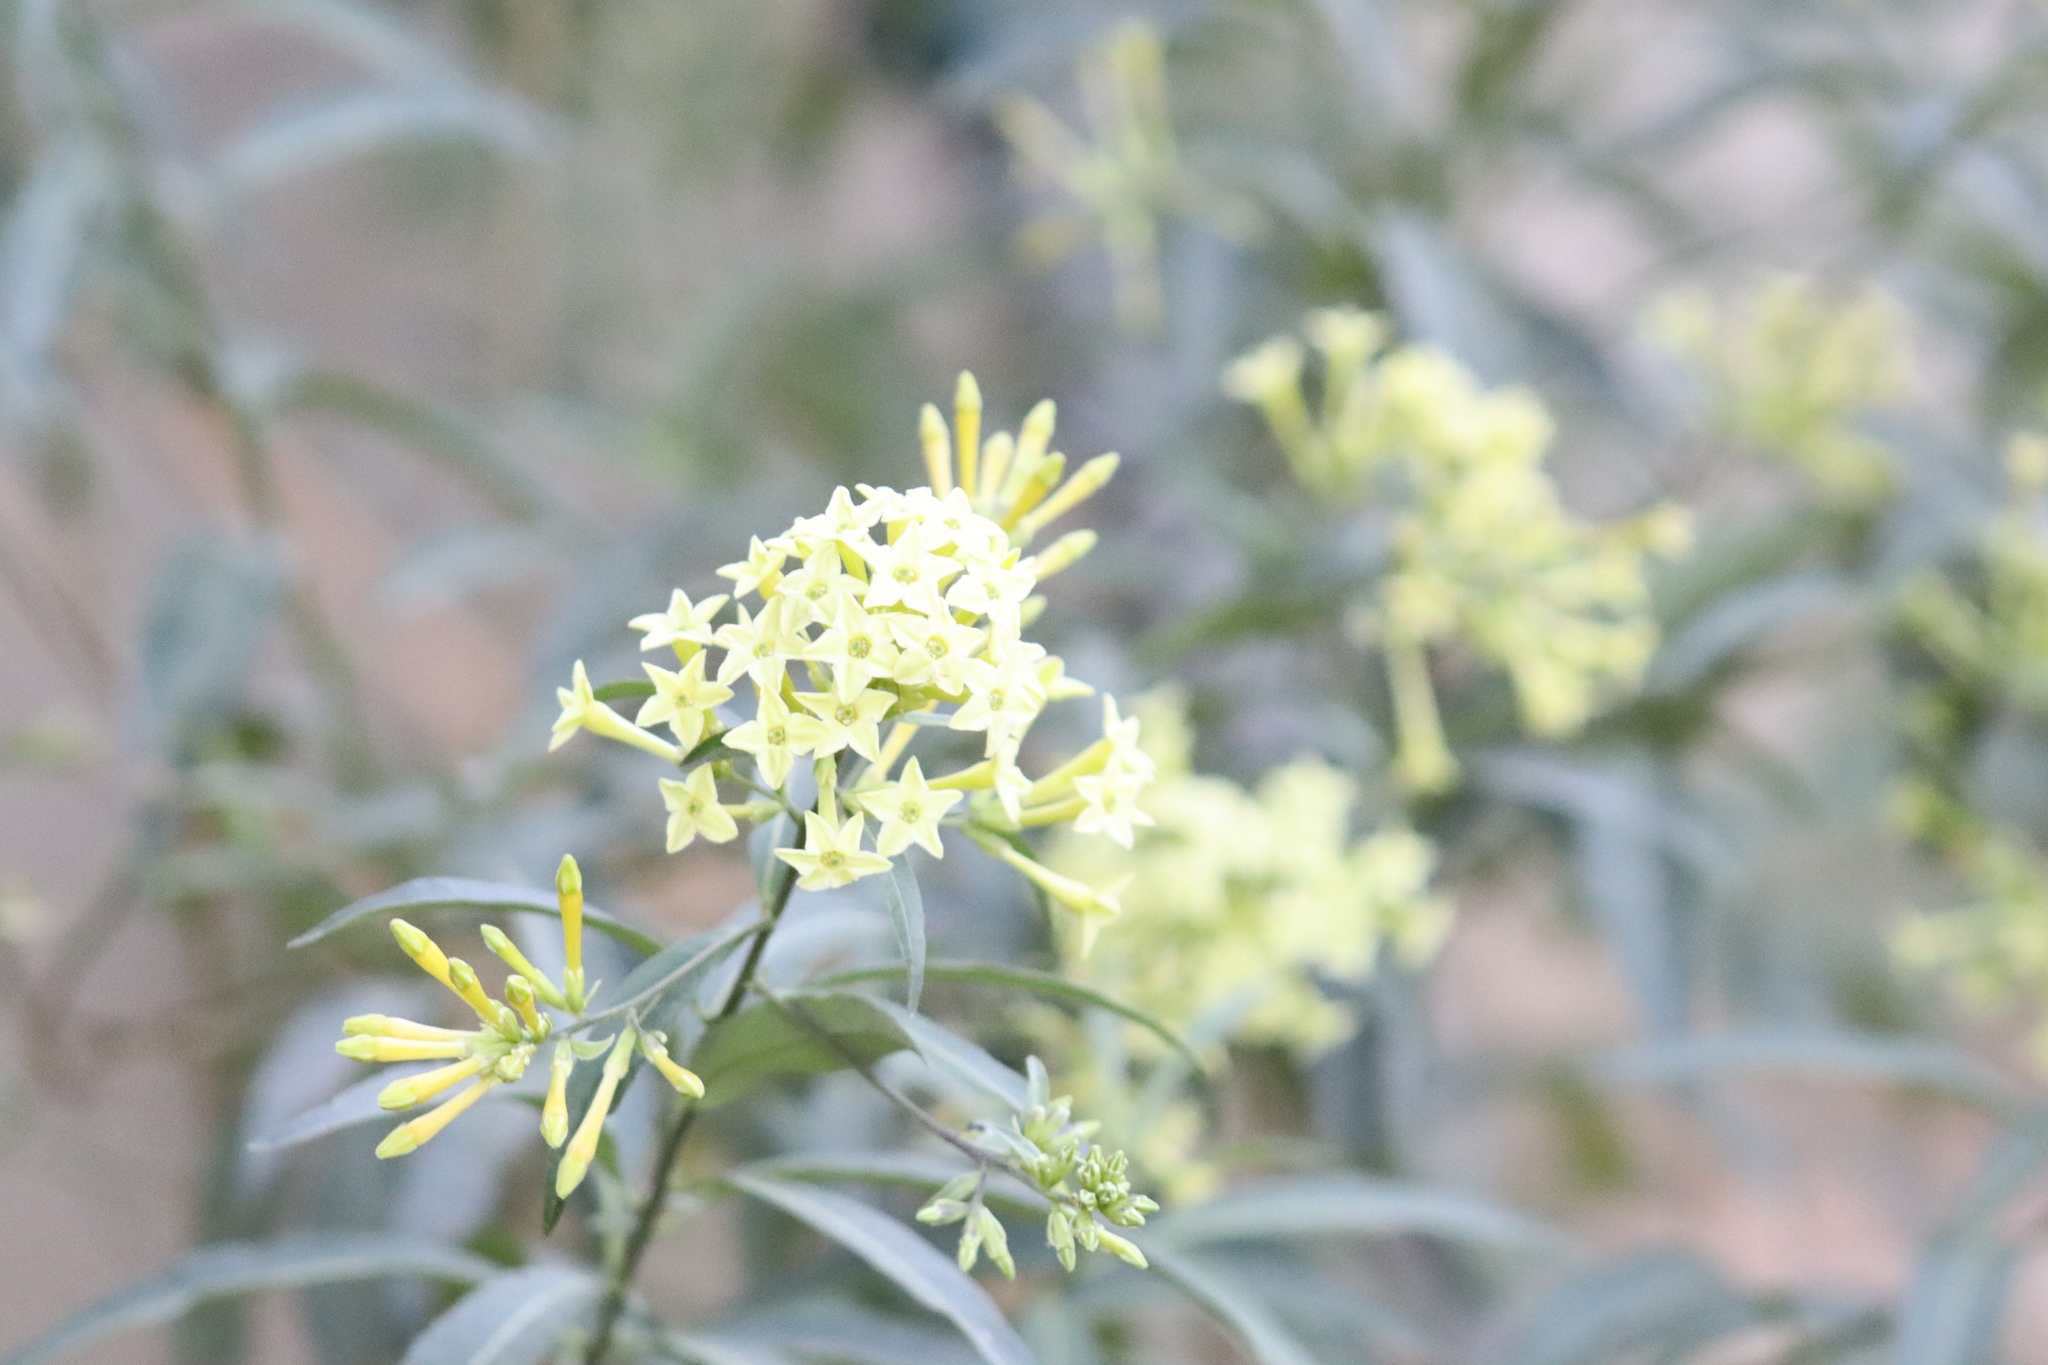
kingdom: Plantae
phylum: Tracheophyta
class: Magnoliopsida
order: Solanales
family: Solanaceae
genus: Cestrum
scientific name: Cestrum parqui
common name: Chilean cestrum
